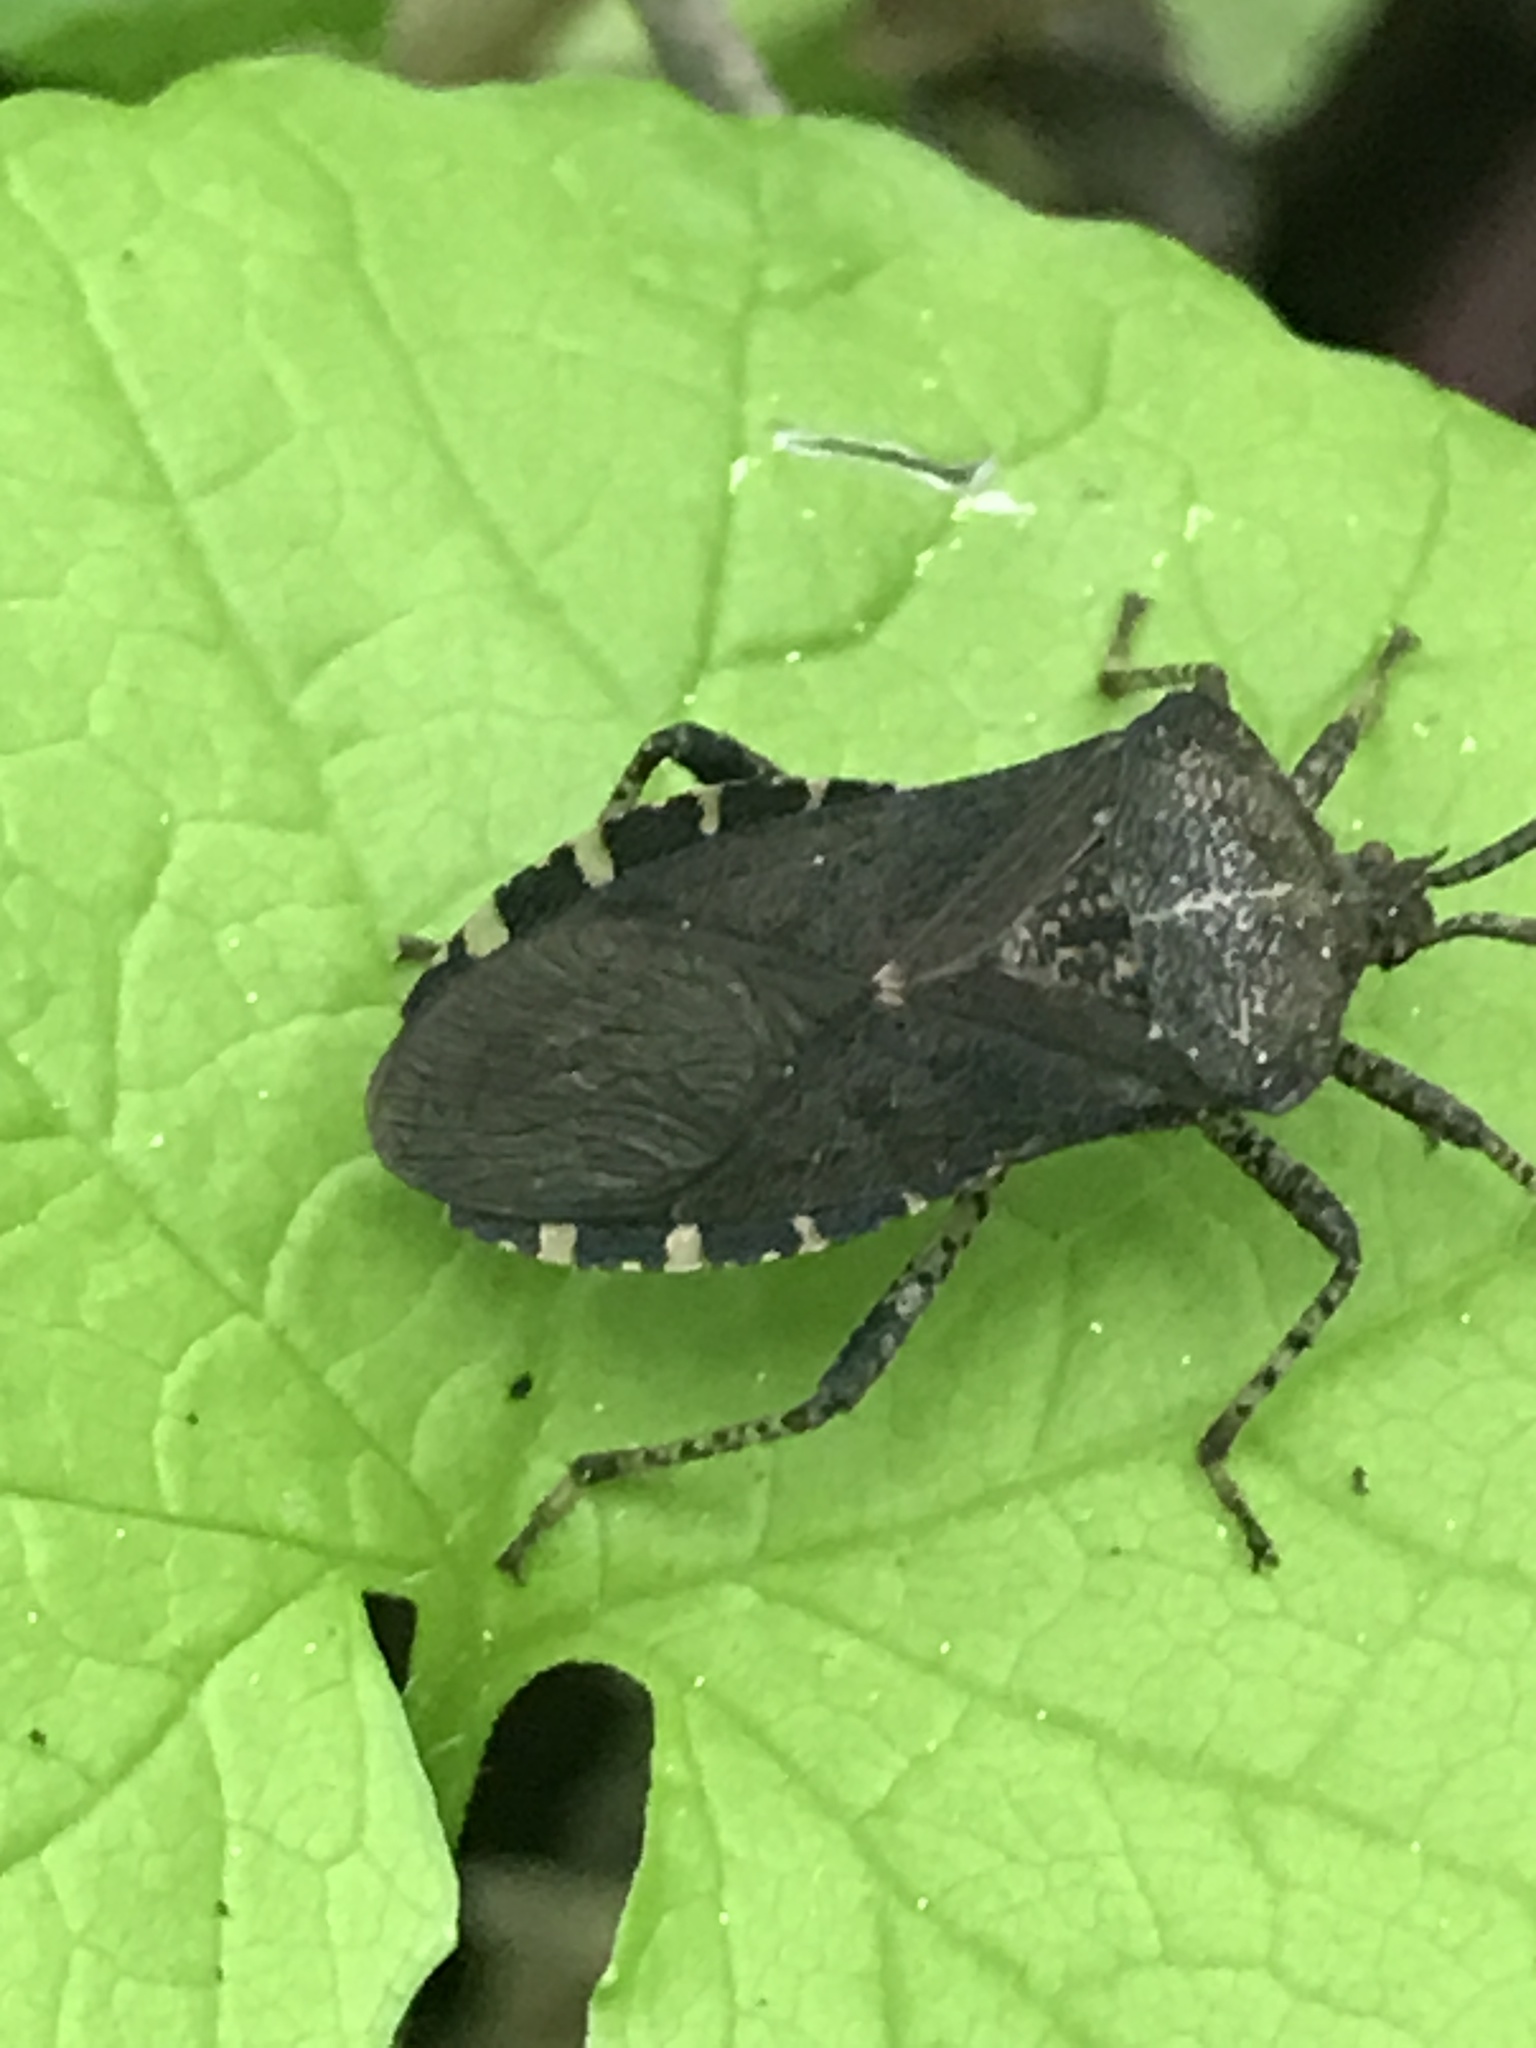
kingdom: Animalia
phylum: Arthropoda
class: Insecta
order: Hemiptera
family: Coreidae
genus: Anasa
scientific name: Anasa armigera
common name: Horned squash bug
